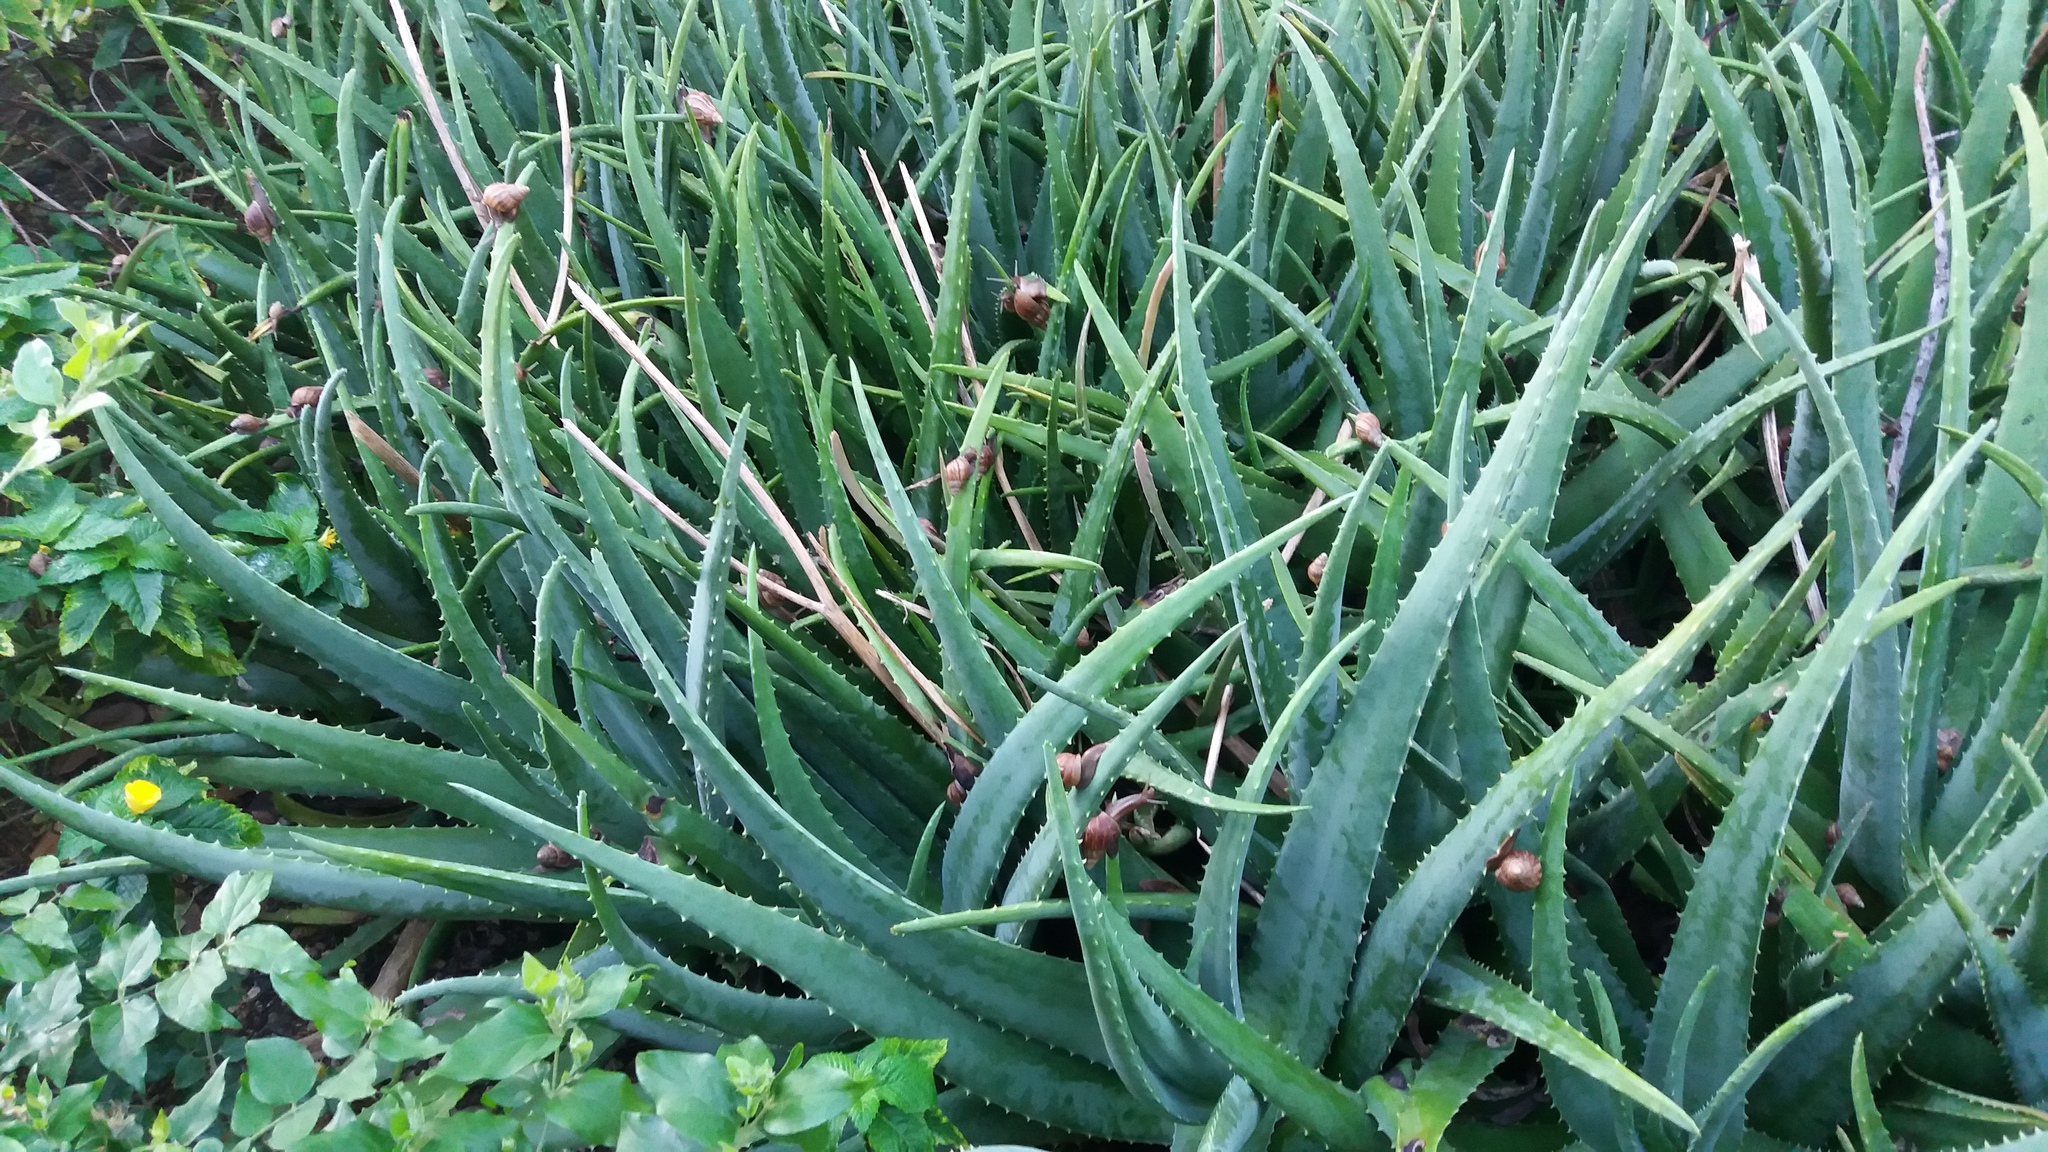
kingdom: Animalia
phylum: Mollusca
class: Gastropoda
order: Stylommatophora
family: Achatinidae
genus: Lissachatina
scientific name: Lissachatina fulica
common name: Giant african snail
